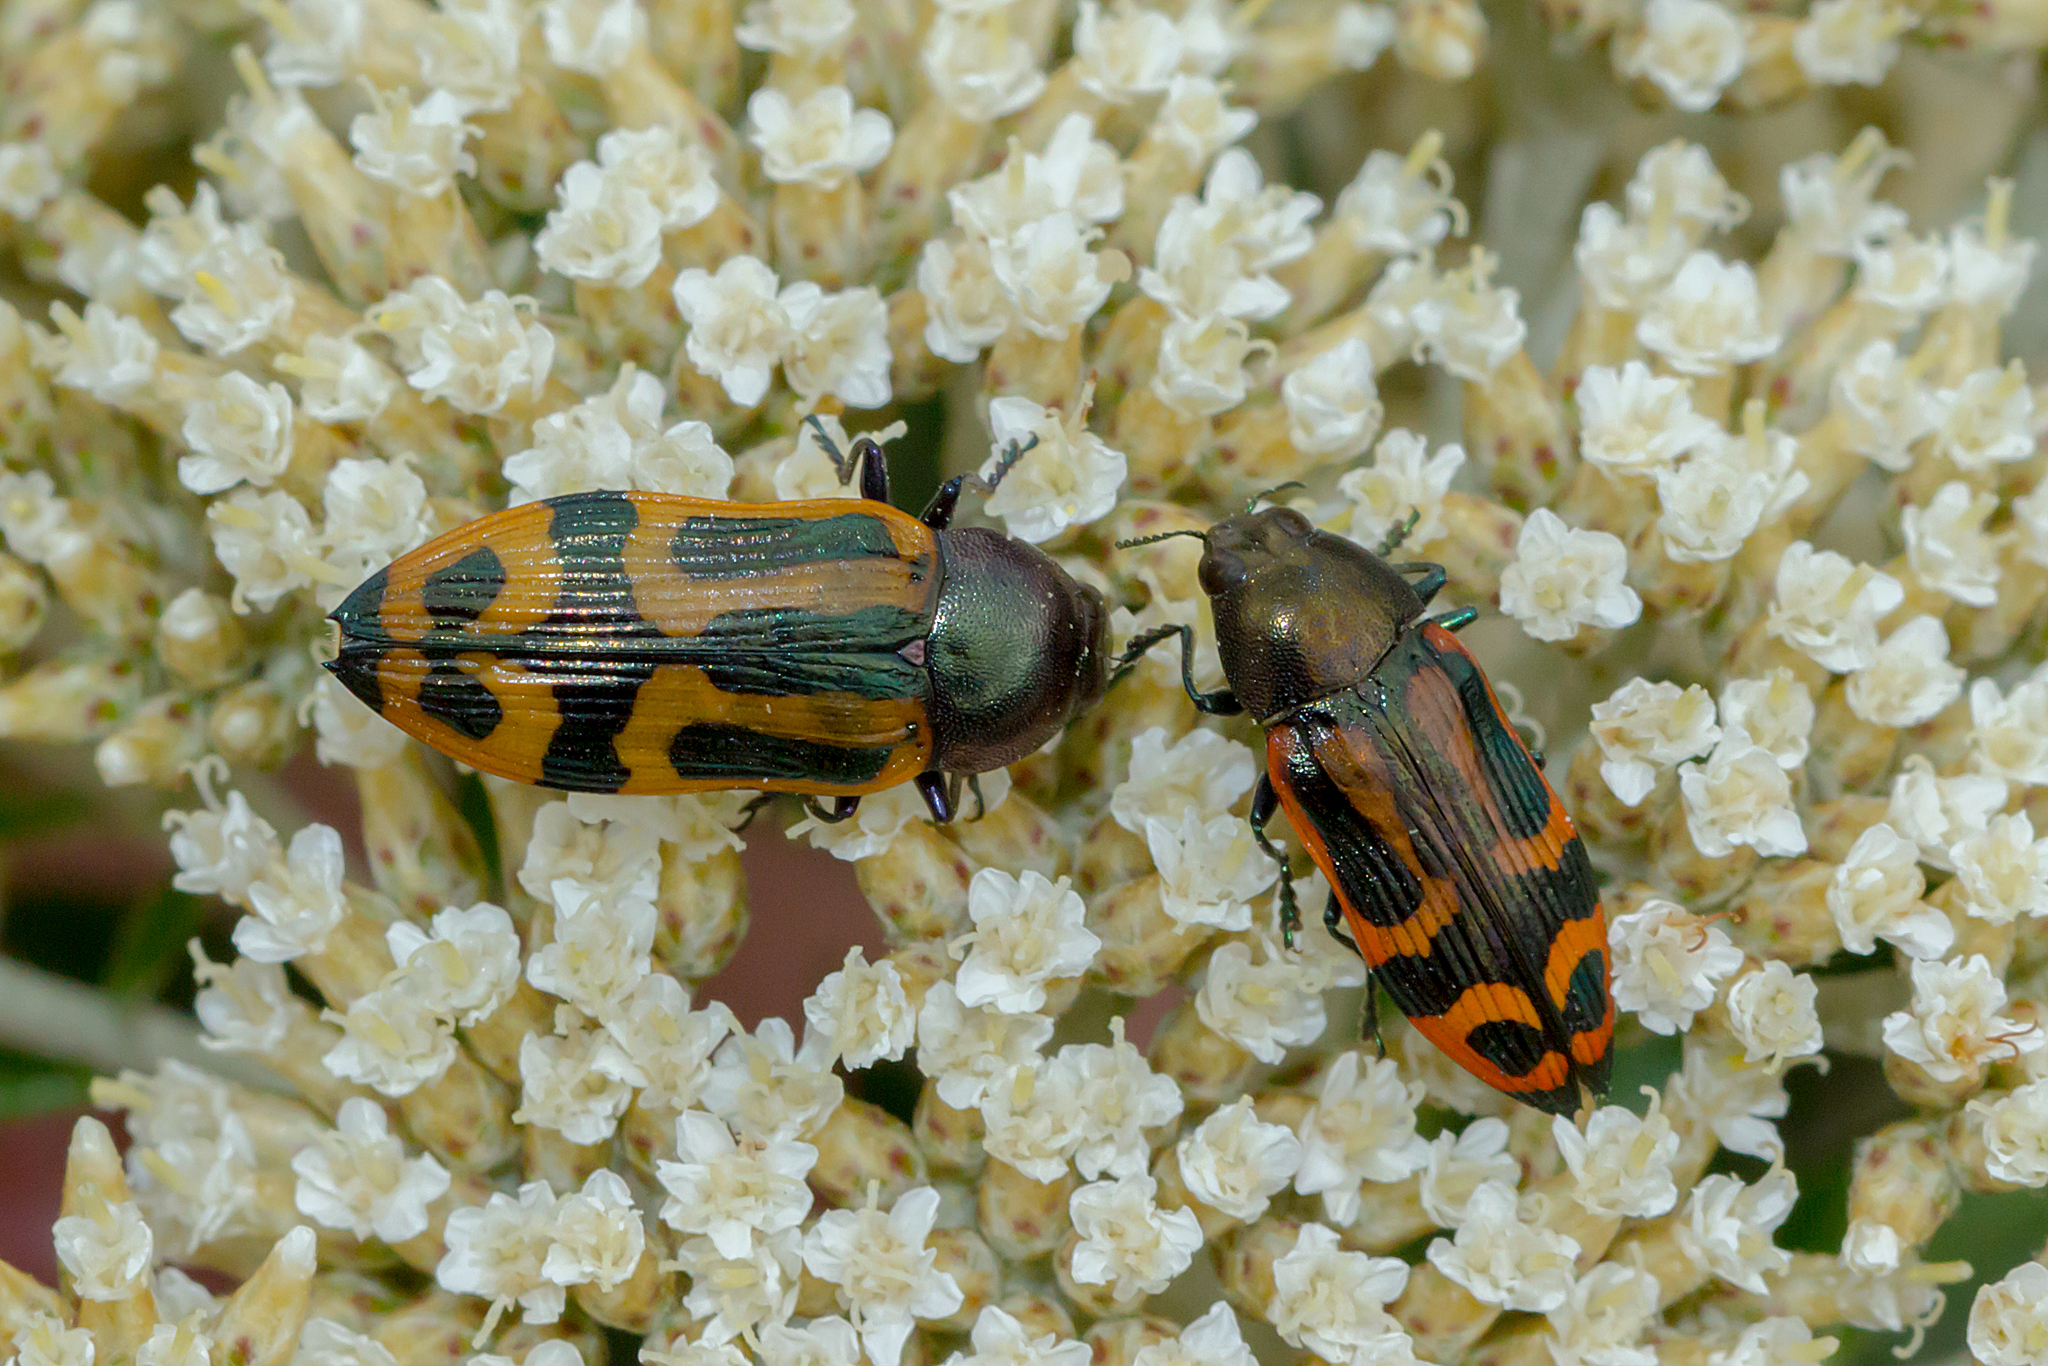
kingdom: Animalia
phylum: Arthropoda
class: Insecta
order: Coleoptera
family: Buprestidae
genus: Castiarina
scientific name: Castiarina jospilota
